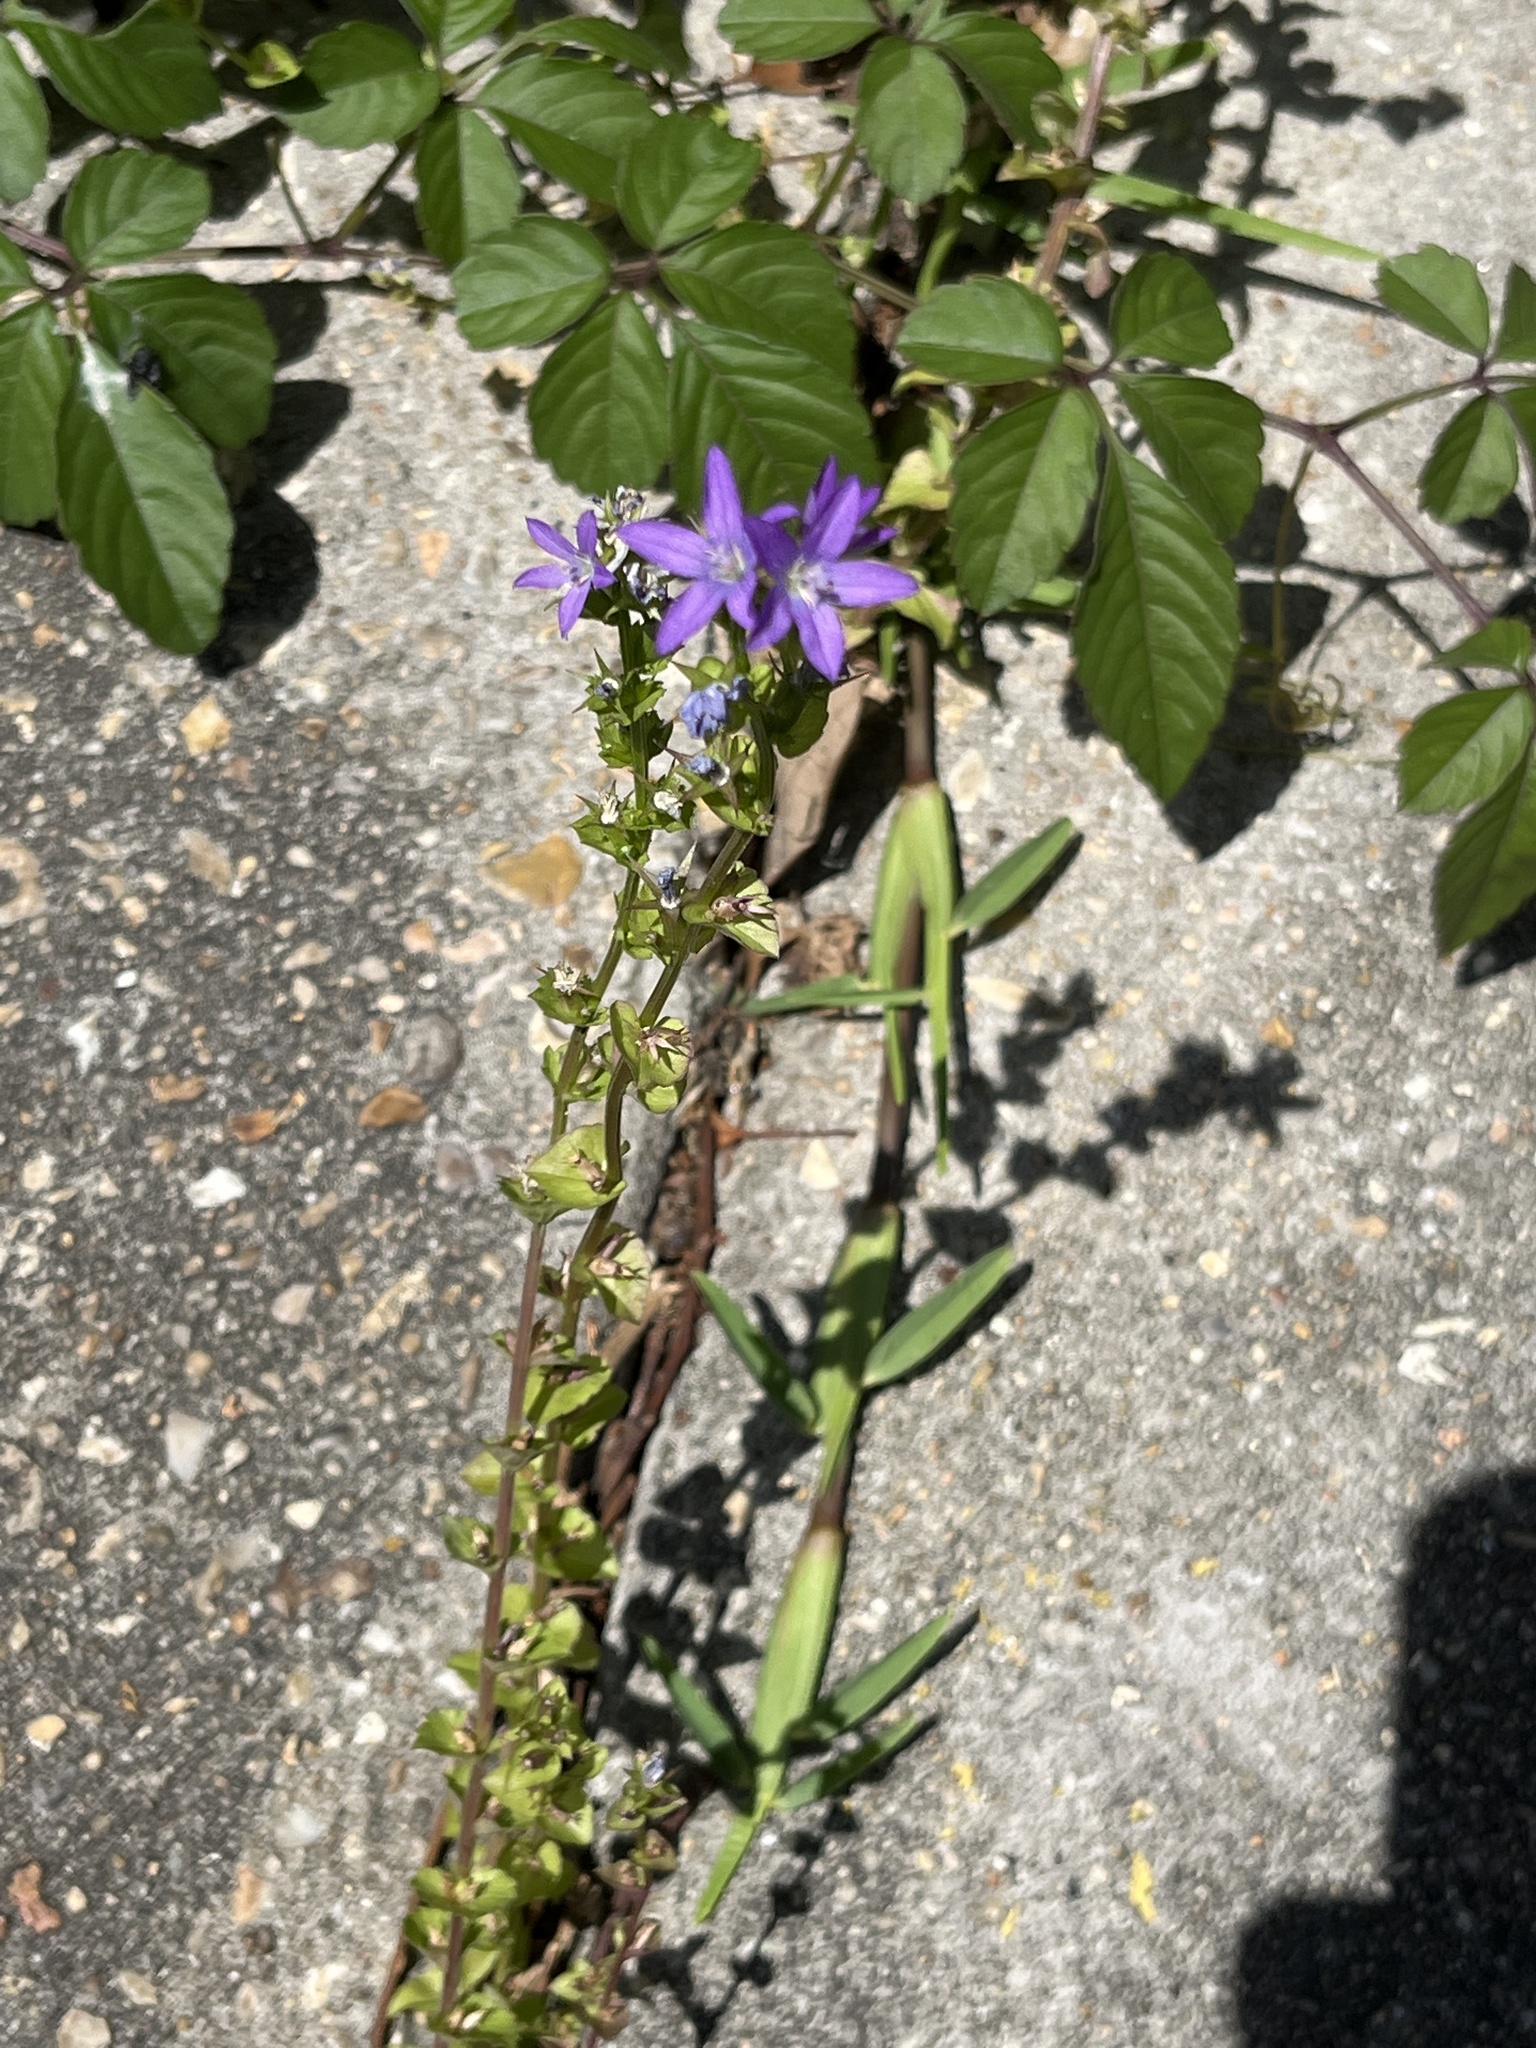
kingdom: Plantae
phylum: Tracheophyta
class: Magnoliopsida
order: Asterales
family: Campanulaceae
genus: Triodanis
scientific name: Triodanis perfoliata
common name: Clasping venus' looking-glass
